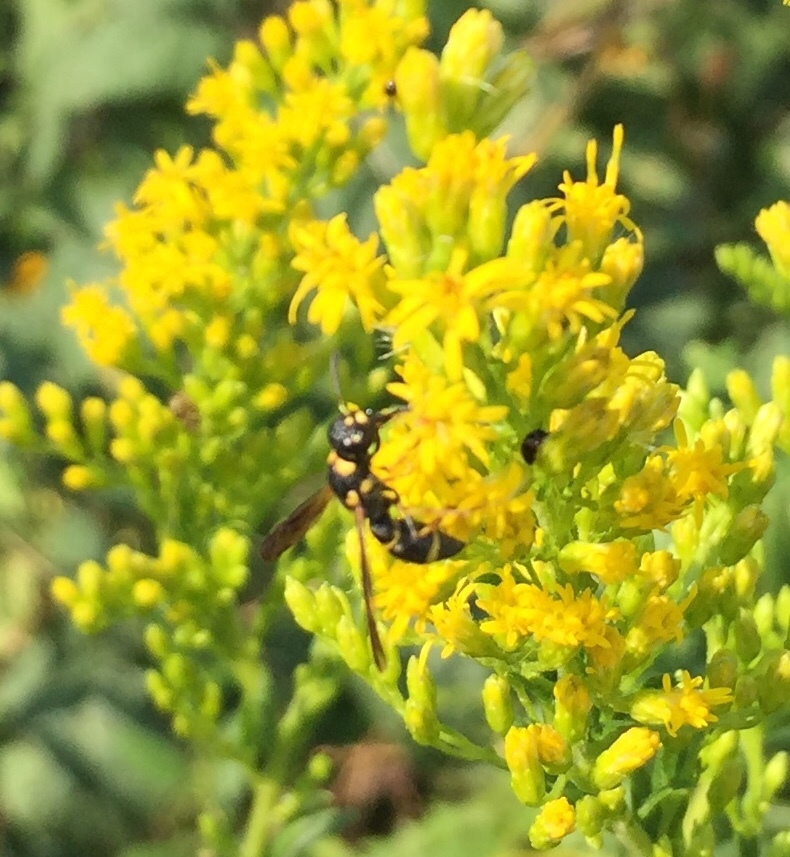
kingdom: Animalia
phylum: Arthropoda
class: Insecta
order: Hymenoptera
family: Eumenidae
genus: Parancistrocerus
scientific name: Parancistrocerus perennis
